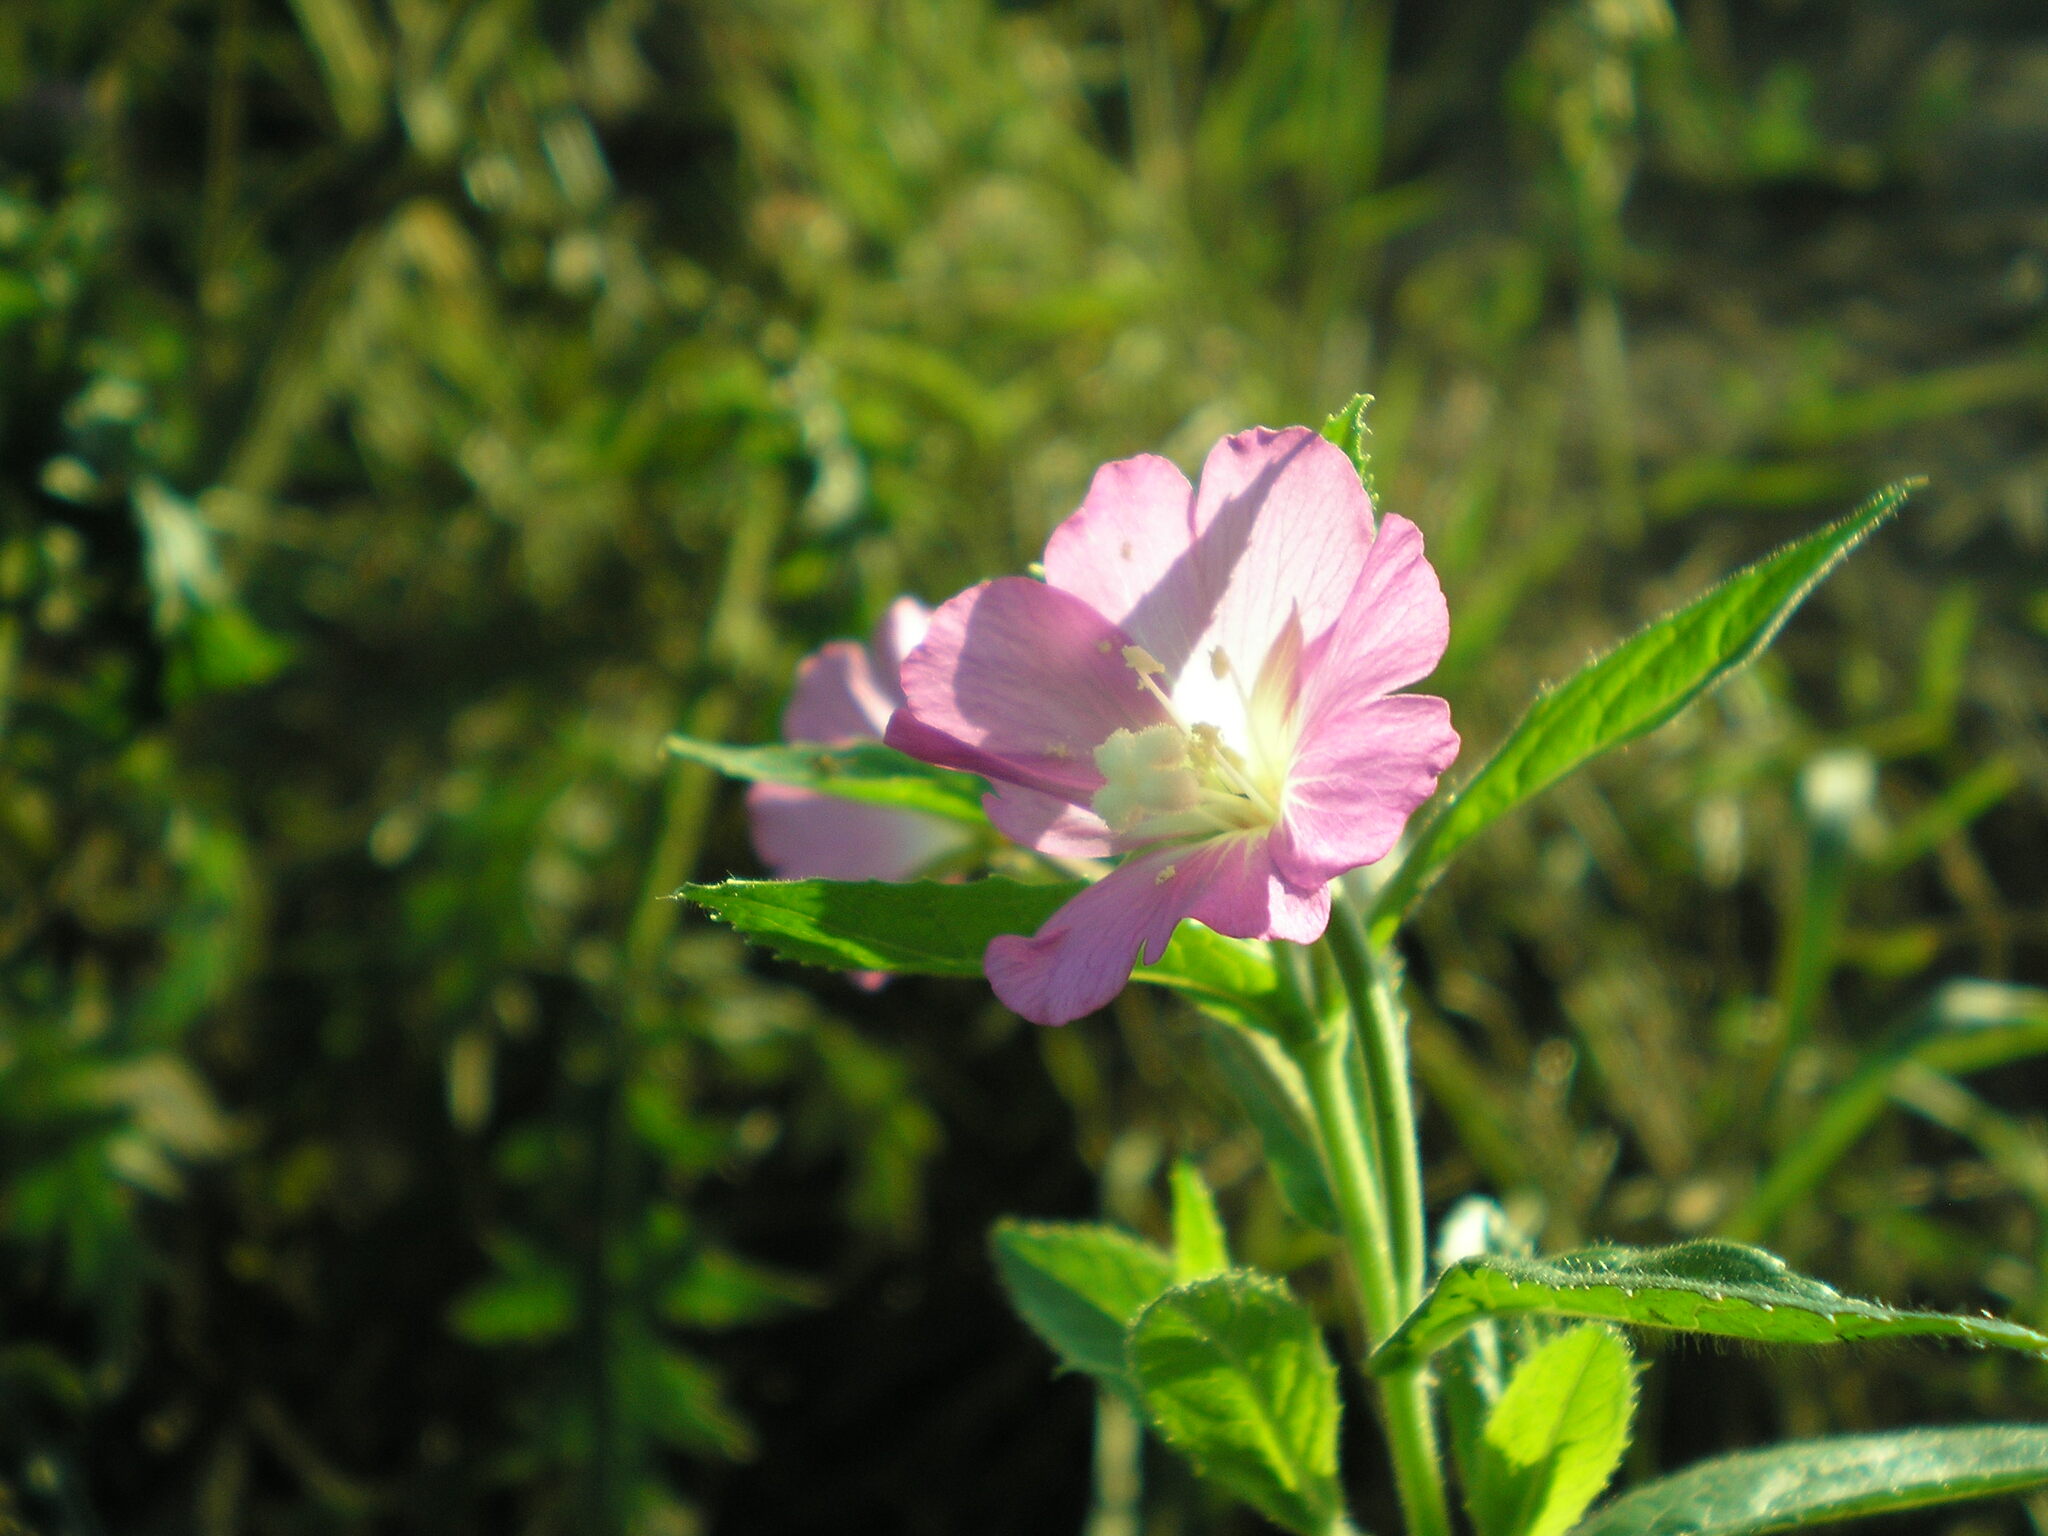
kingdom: Plantae
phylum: Tracheophyta
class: Magnoliopsida
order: Myrtales
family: Onagraceae
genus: Epilobium
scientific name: Epilobium hirsutum
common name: Great willowherb
